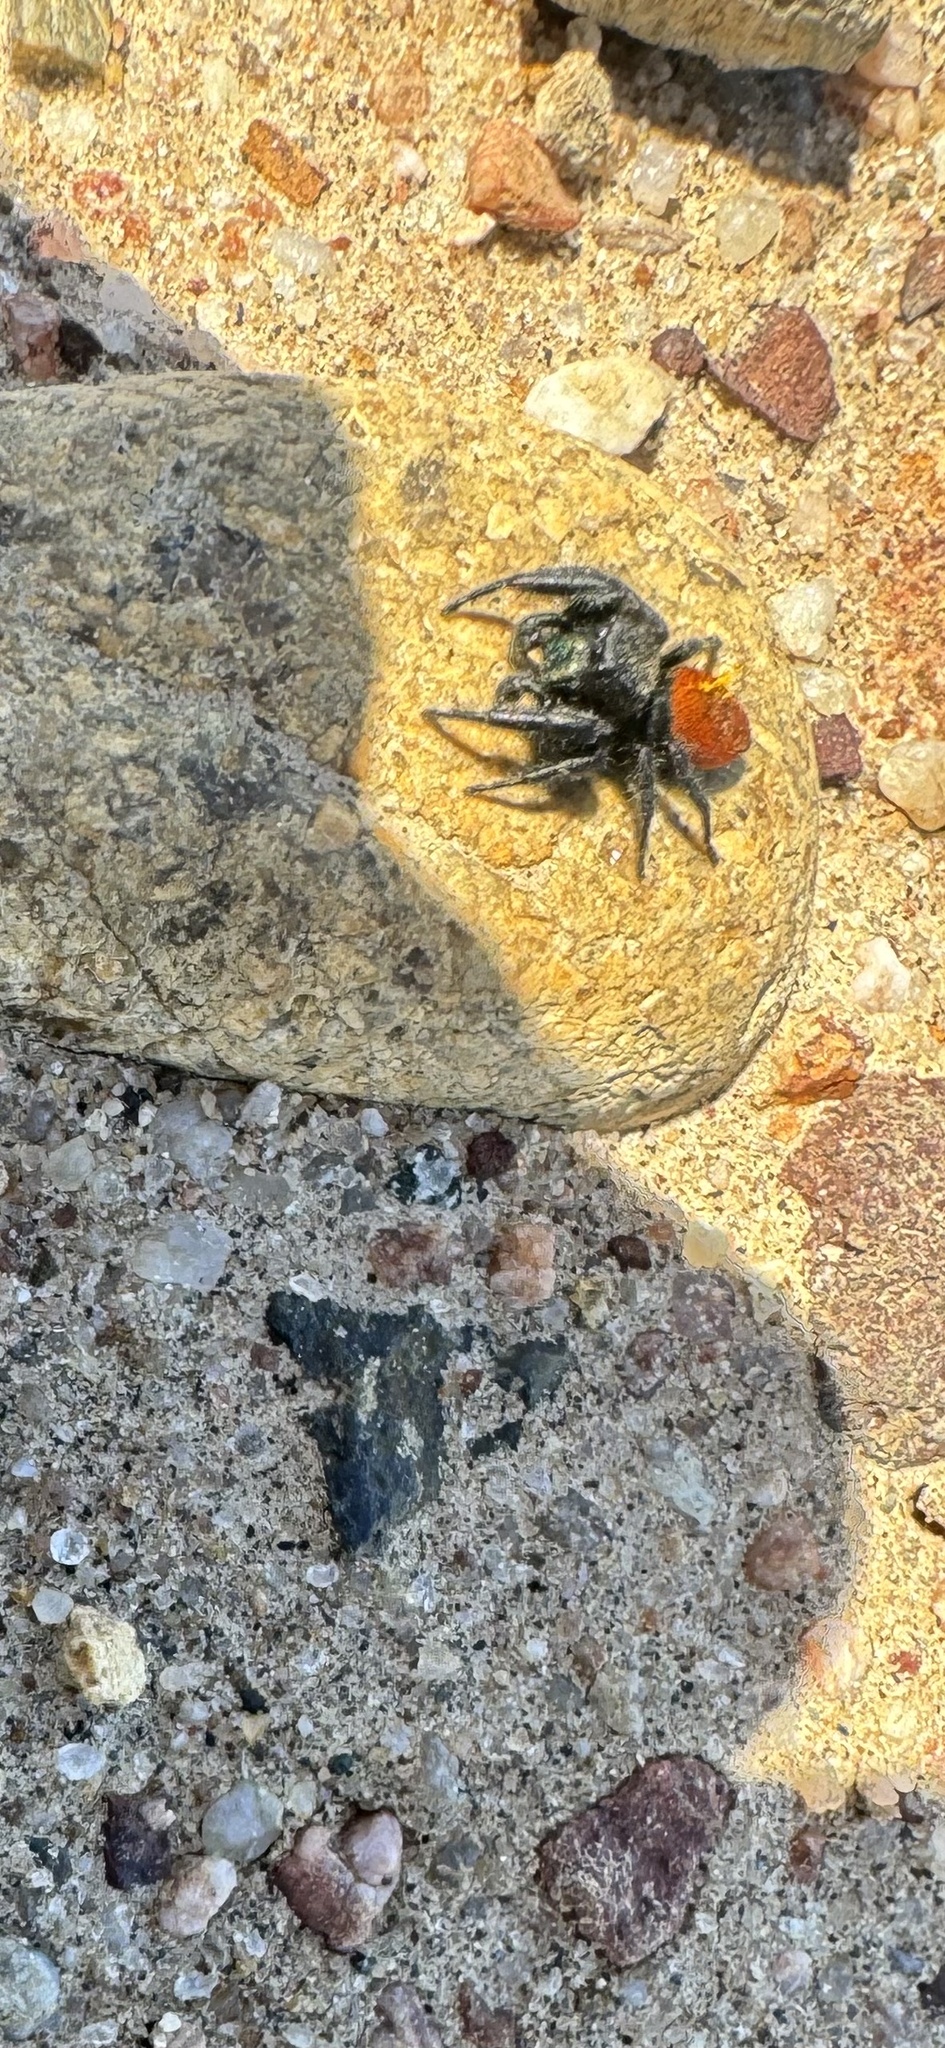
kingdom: Animalia
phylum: Arthropoda
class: Arachnida
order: Araneae
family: Salticidae
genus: Phidippus
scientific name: Phidippus johnsoni
